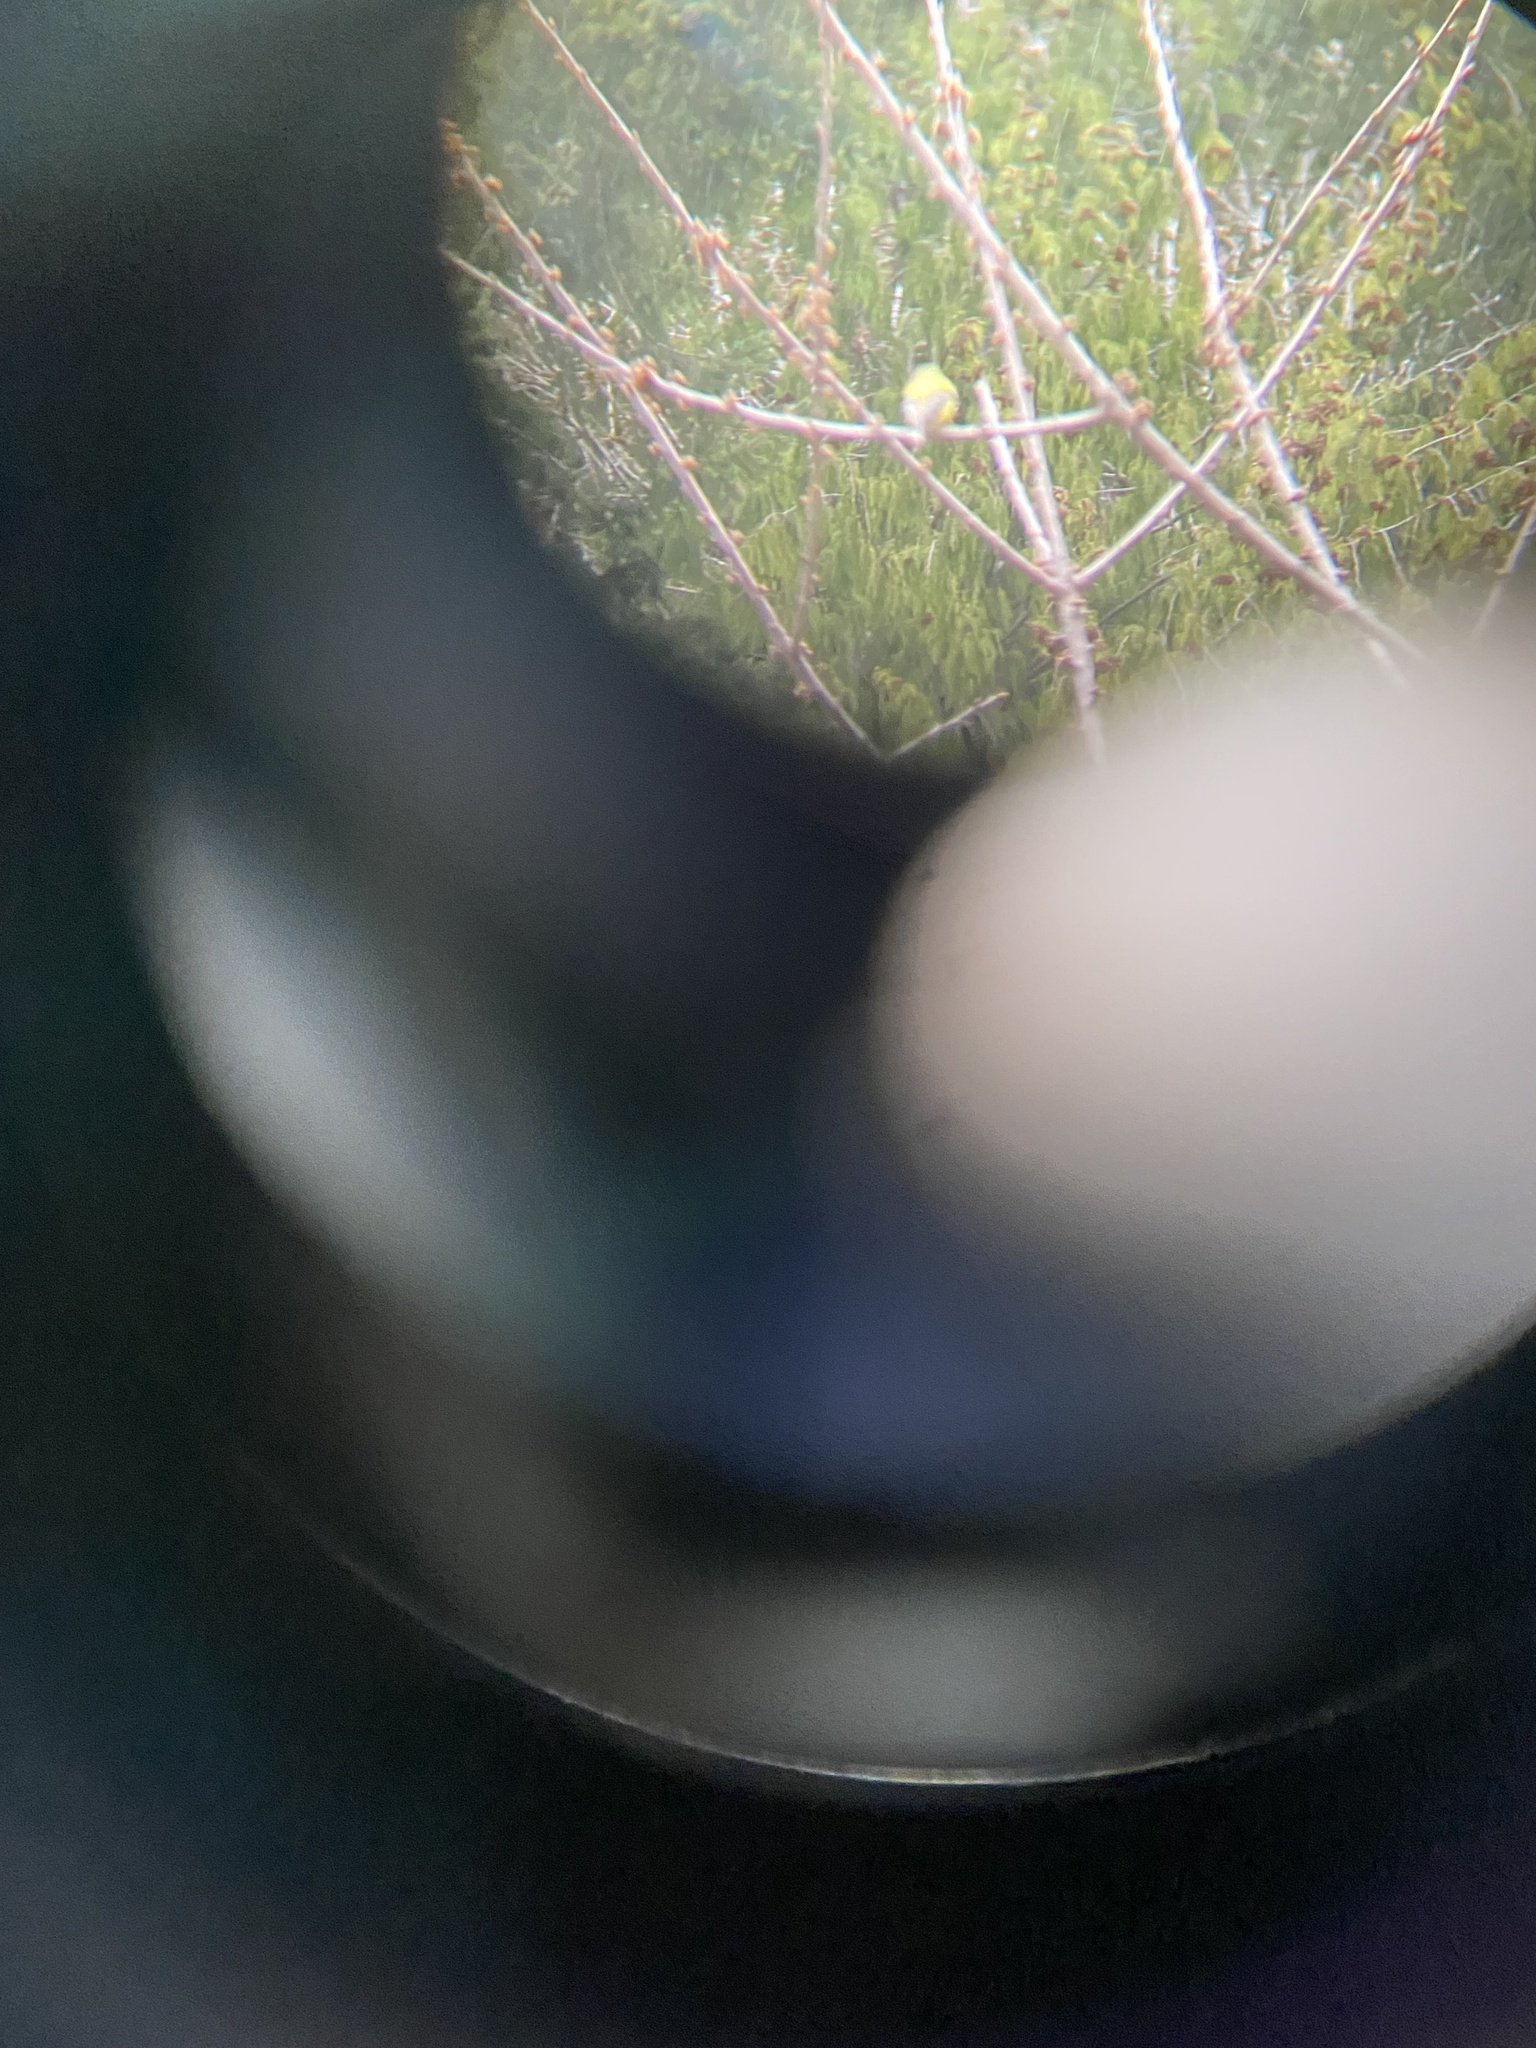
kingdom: Animalia
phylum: Chordata
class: Aves
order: Passeriformes
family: Fringillidae
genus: Spinus
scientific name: Spinus tristis
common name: American goldfinch
